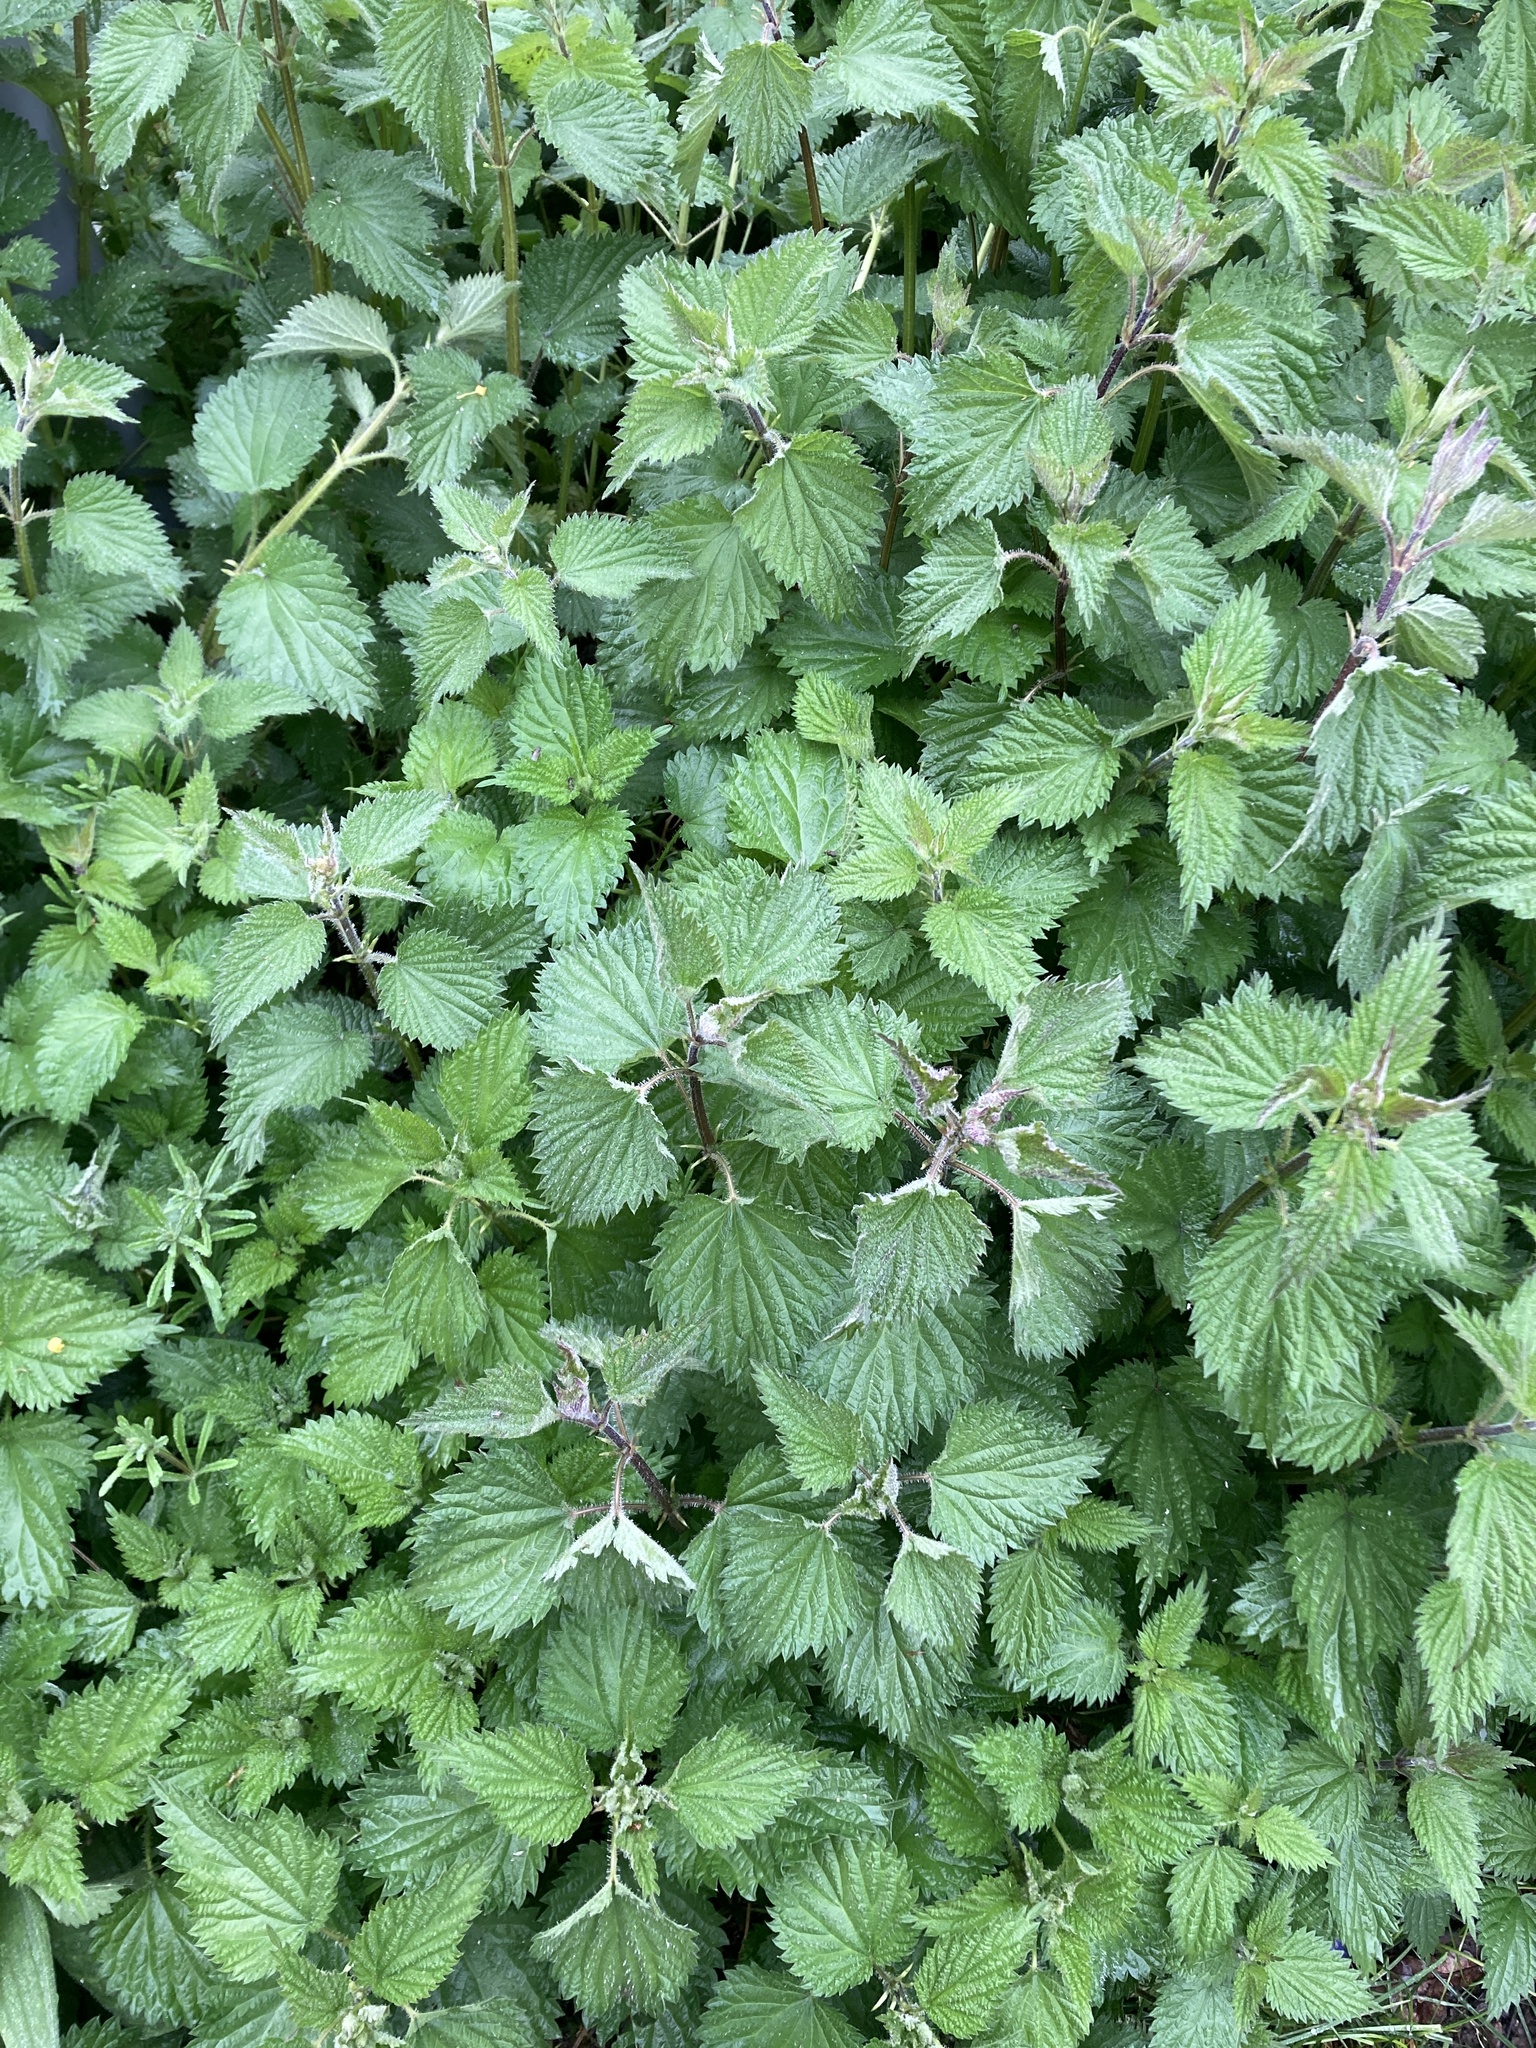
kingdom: Plantae
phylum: Tracheophyta
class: Magnoliopsida
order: Rosales
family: Urticaceae
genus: Urtica
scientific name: Urtica dioica
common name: Common nettle
